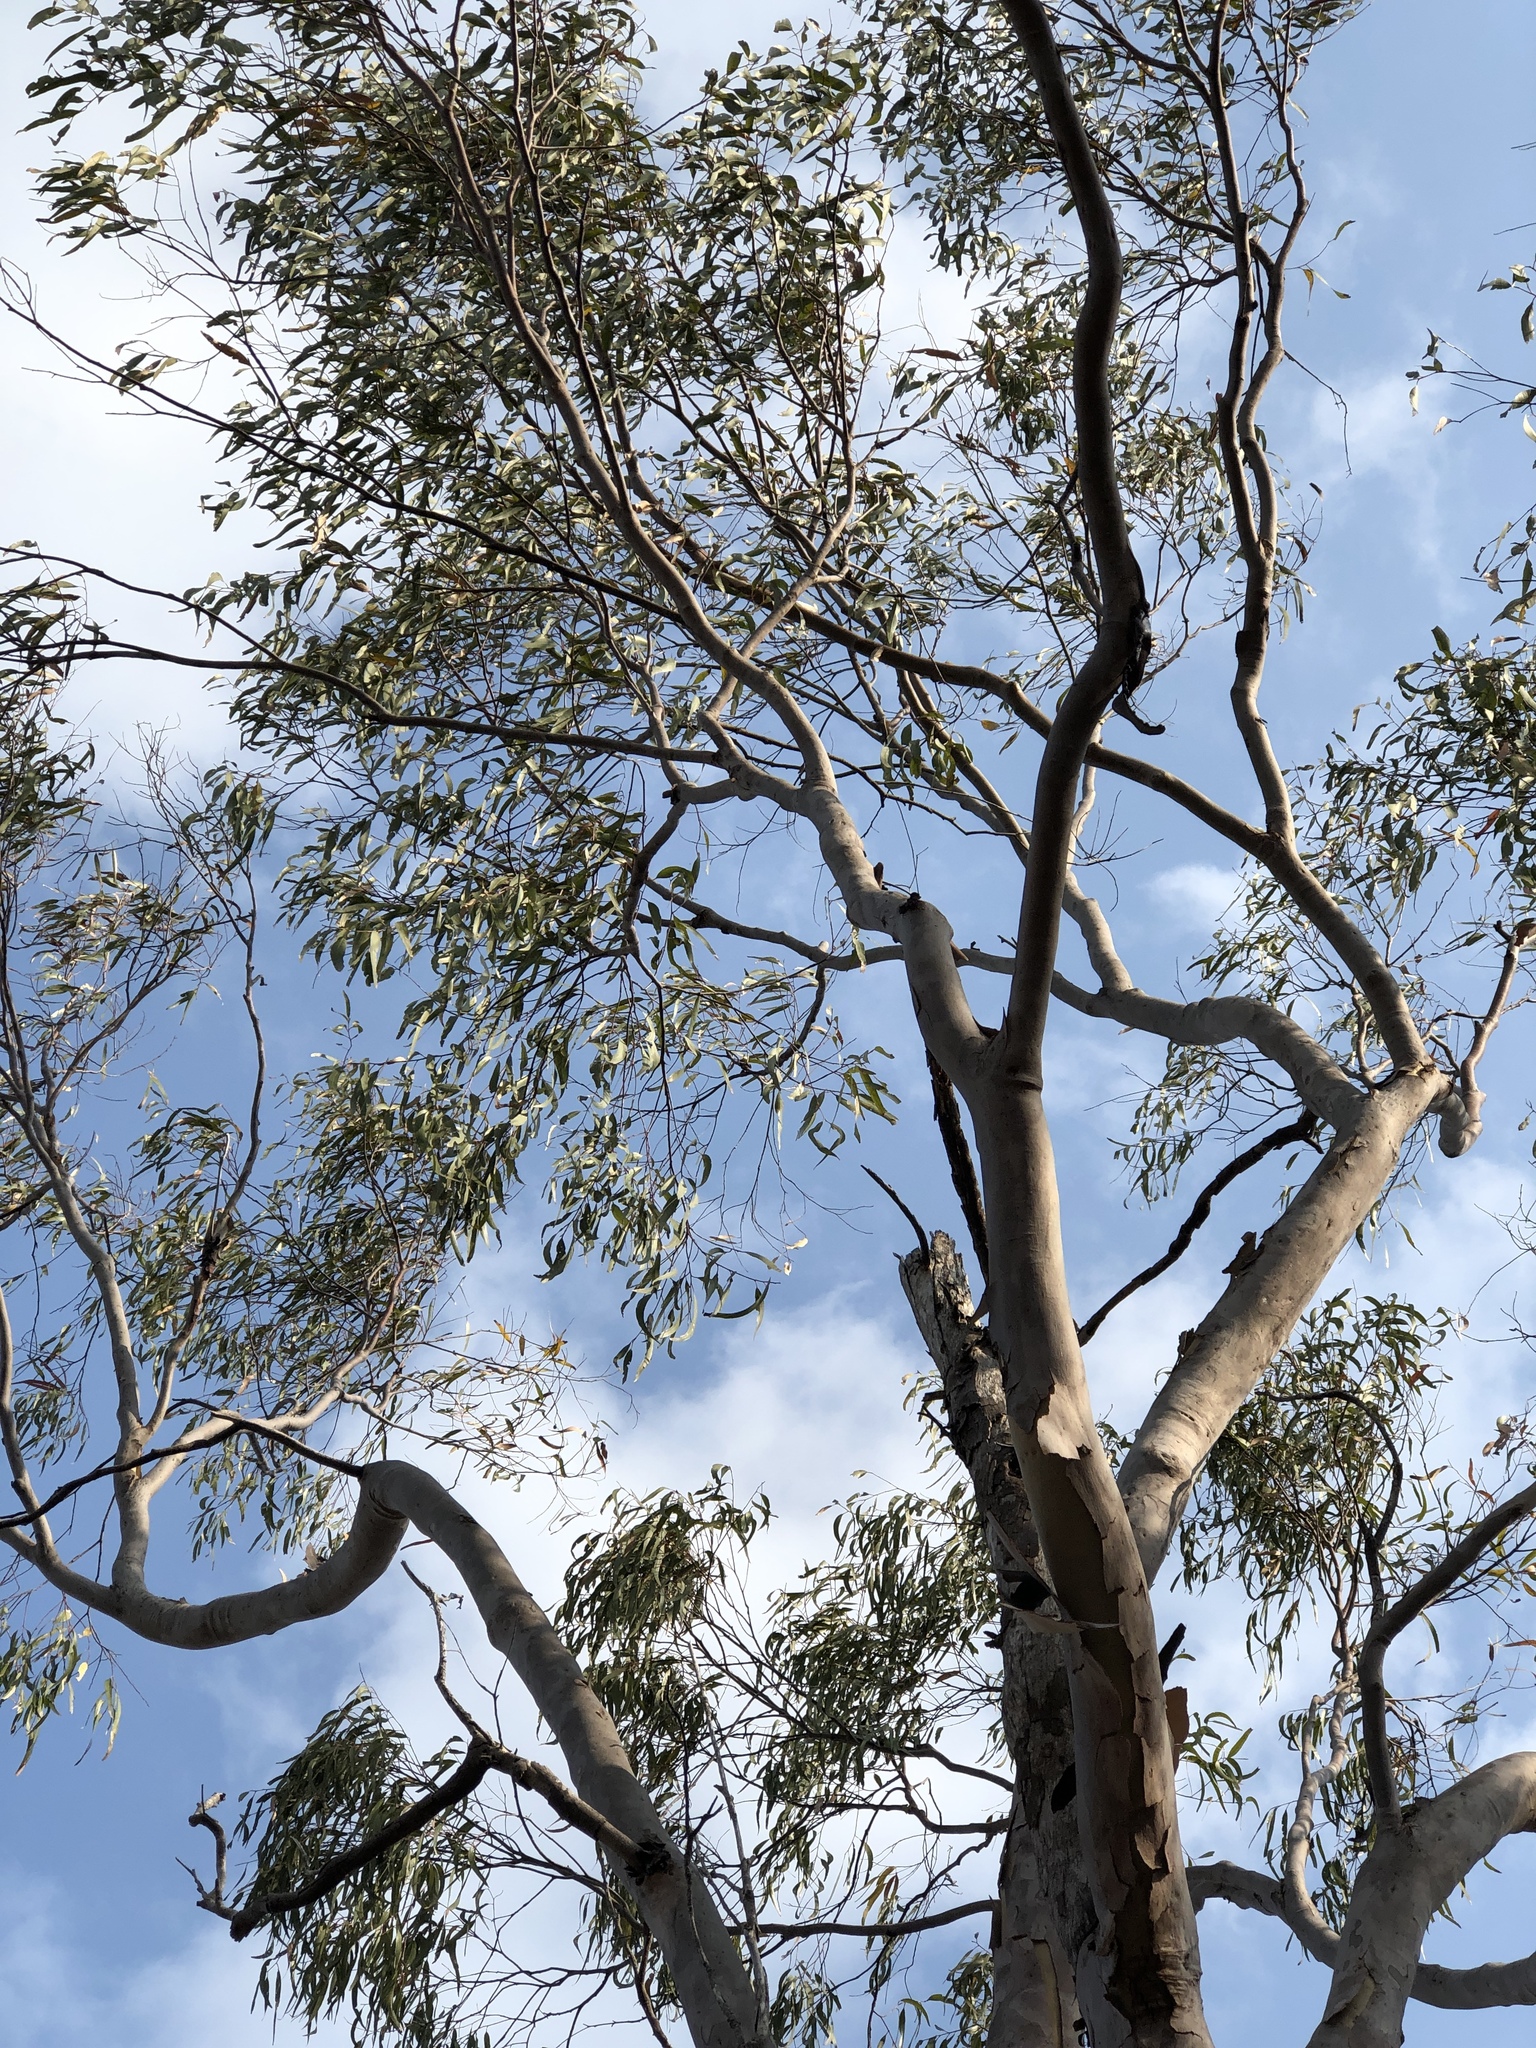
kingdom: Plantae
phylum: Tracheophyta
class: Magnoliopsida
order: Myrtales
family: Myrtaceae
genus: Corymbia
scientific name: Corymbia citriodora
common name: Lemonscented gum
